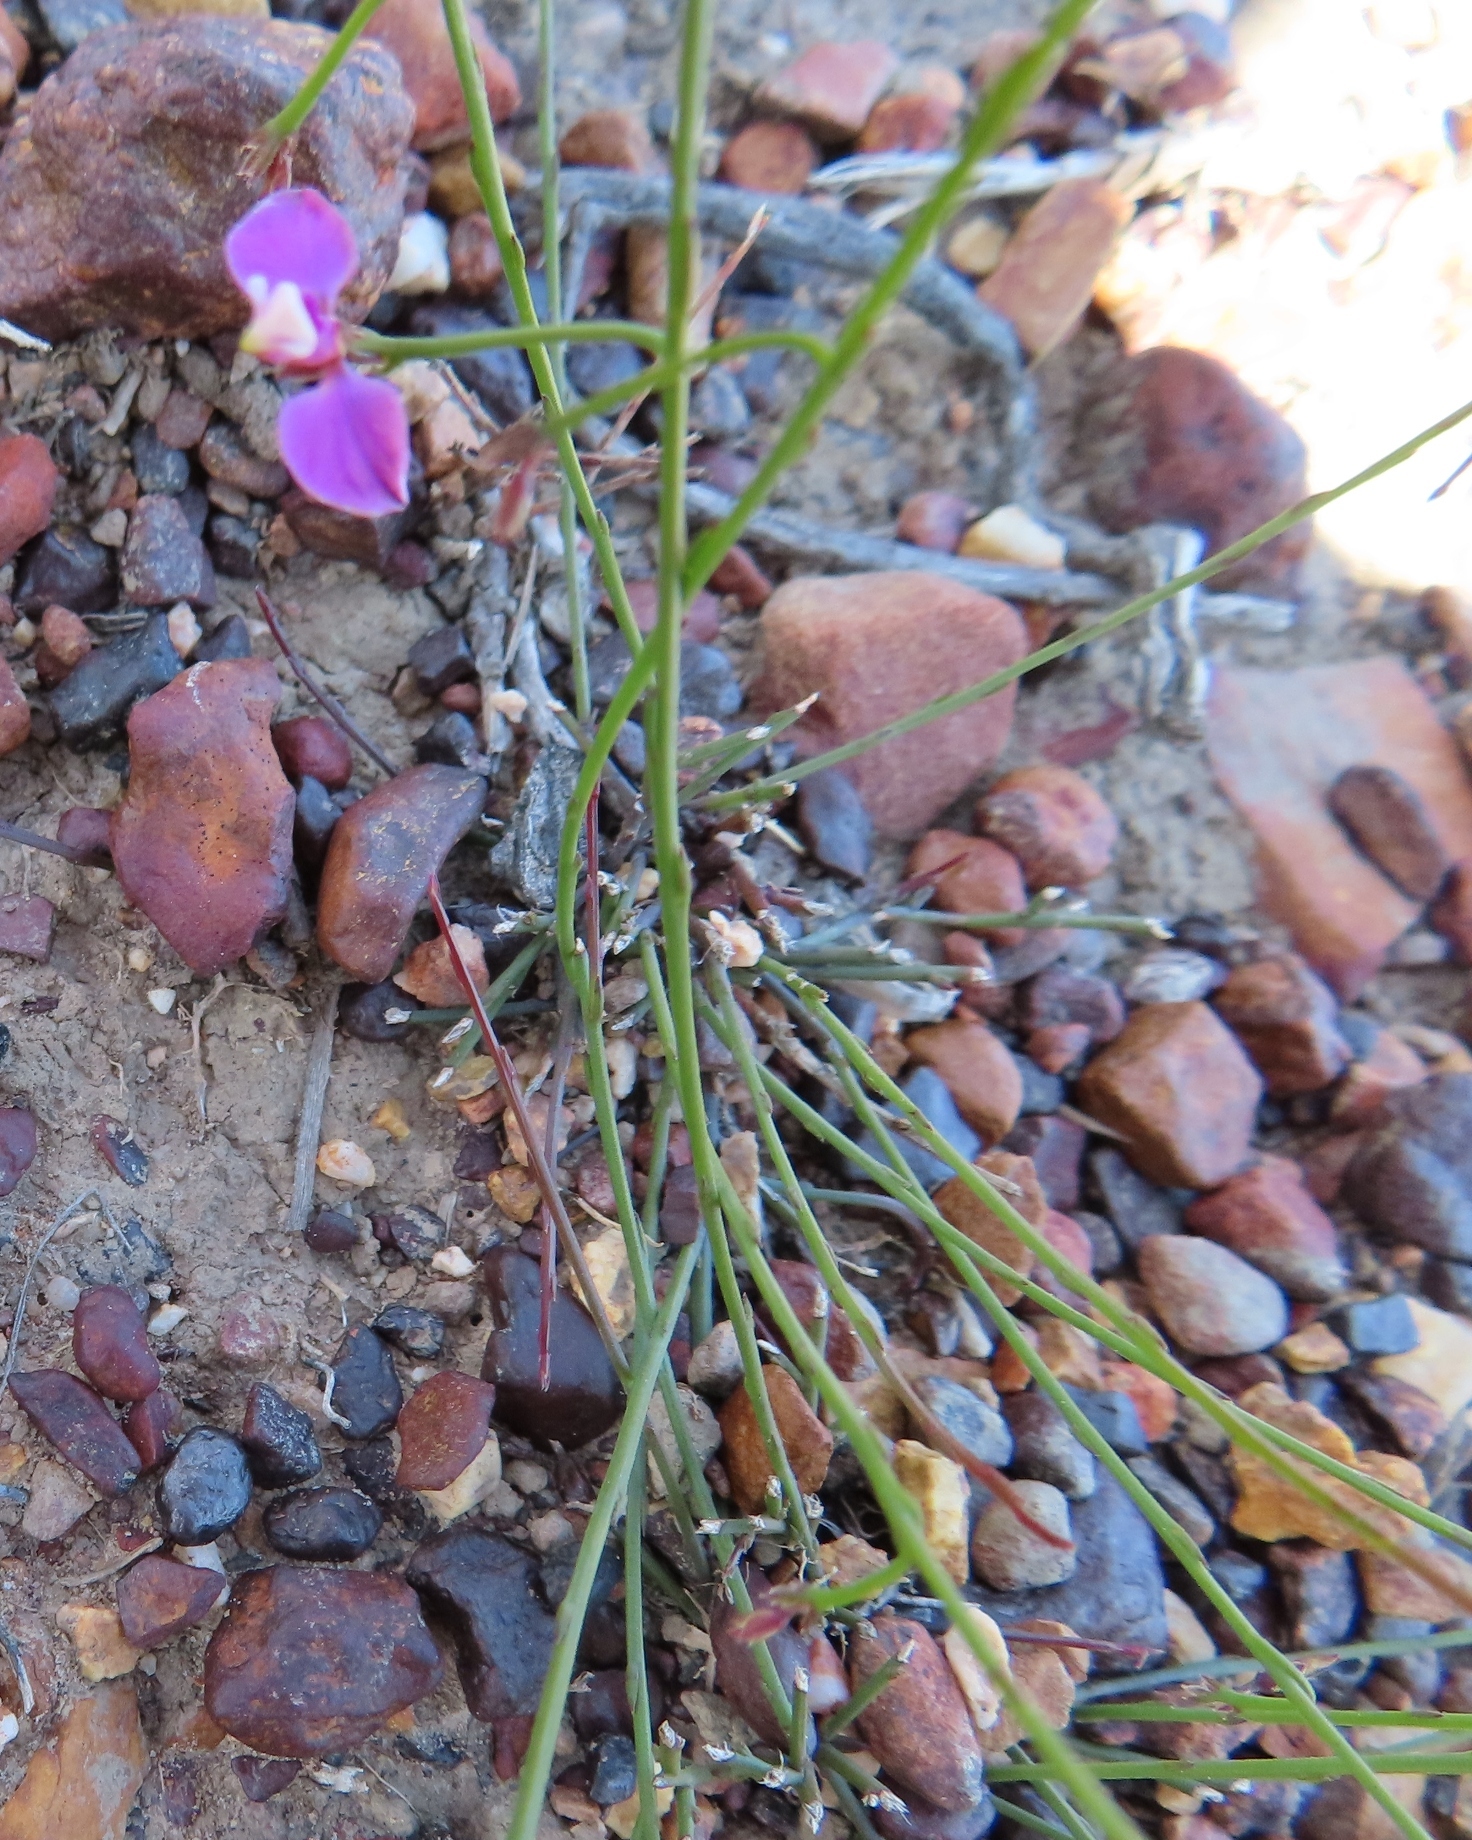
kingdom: Plantae
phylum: Tracheophyta
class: Magnoliopsida
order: Fabales
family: Polygalaceae
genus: Polygala
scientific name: Polygala lehmanniana
